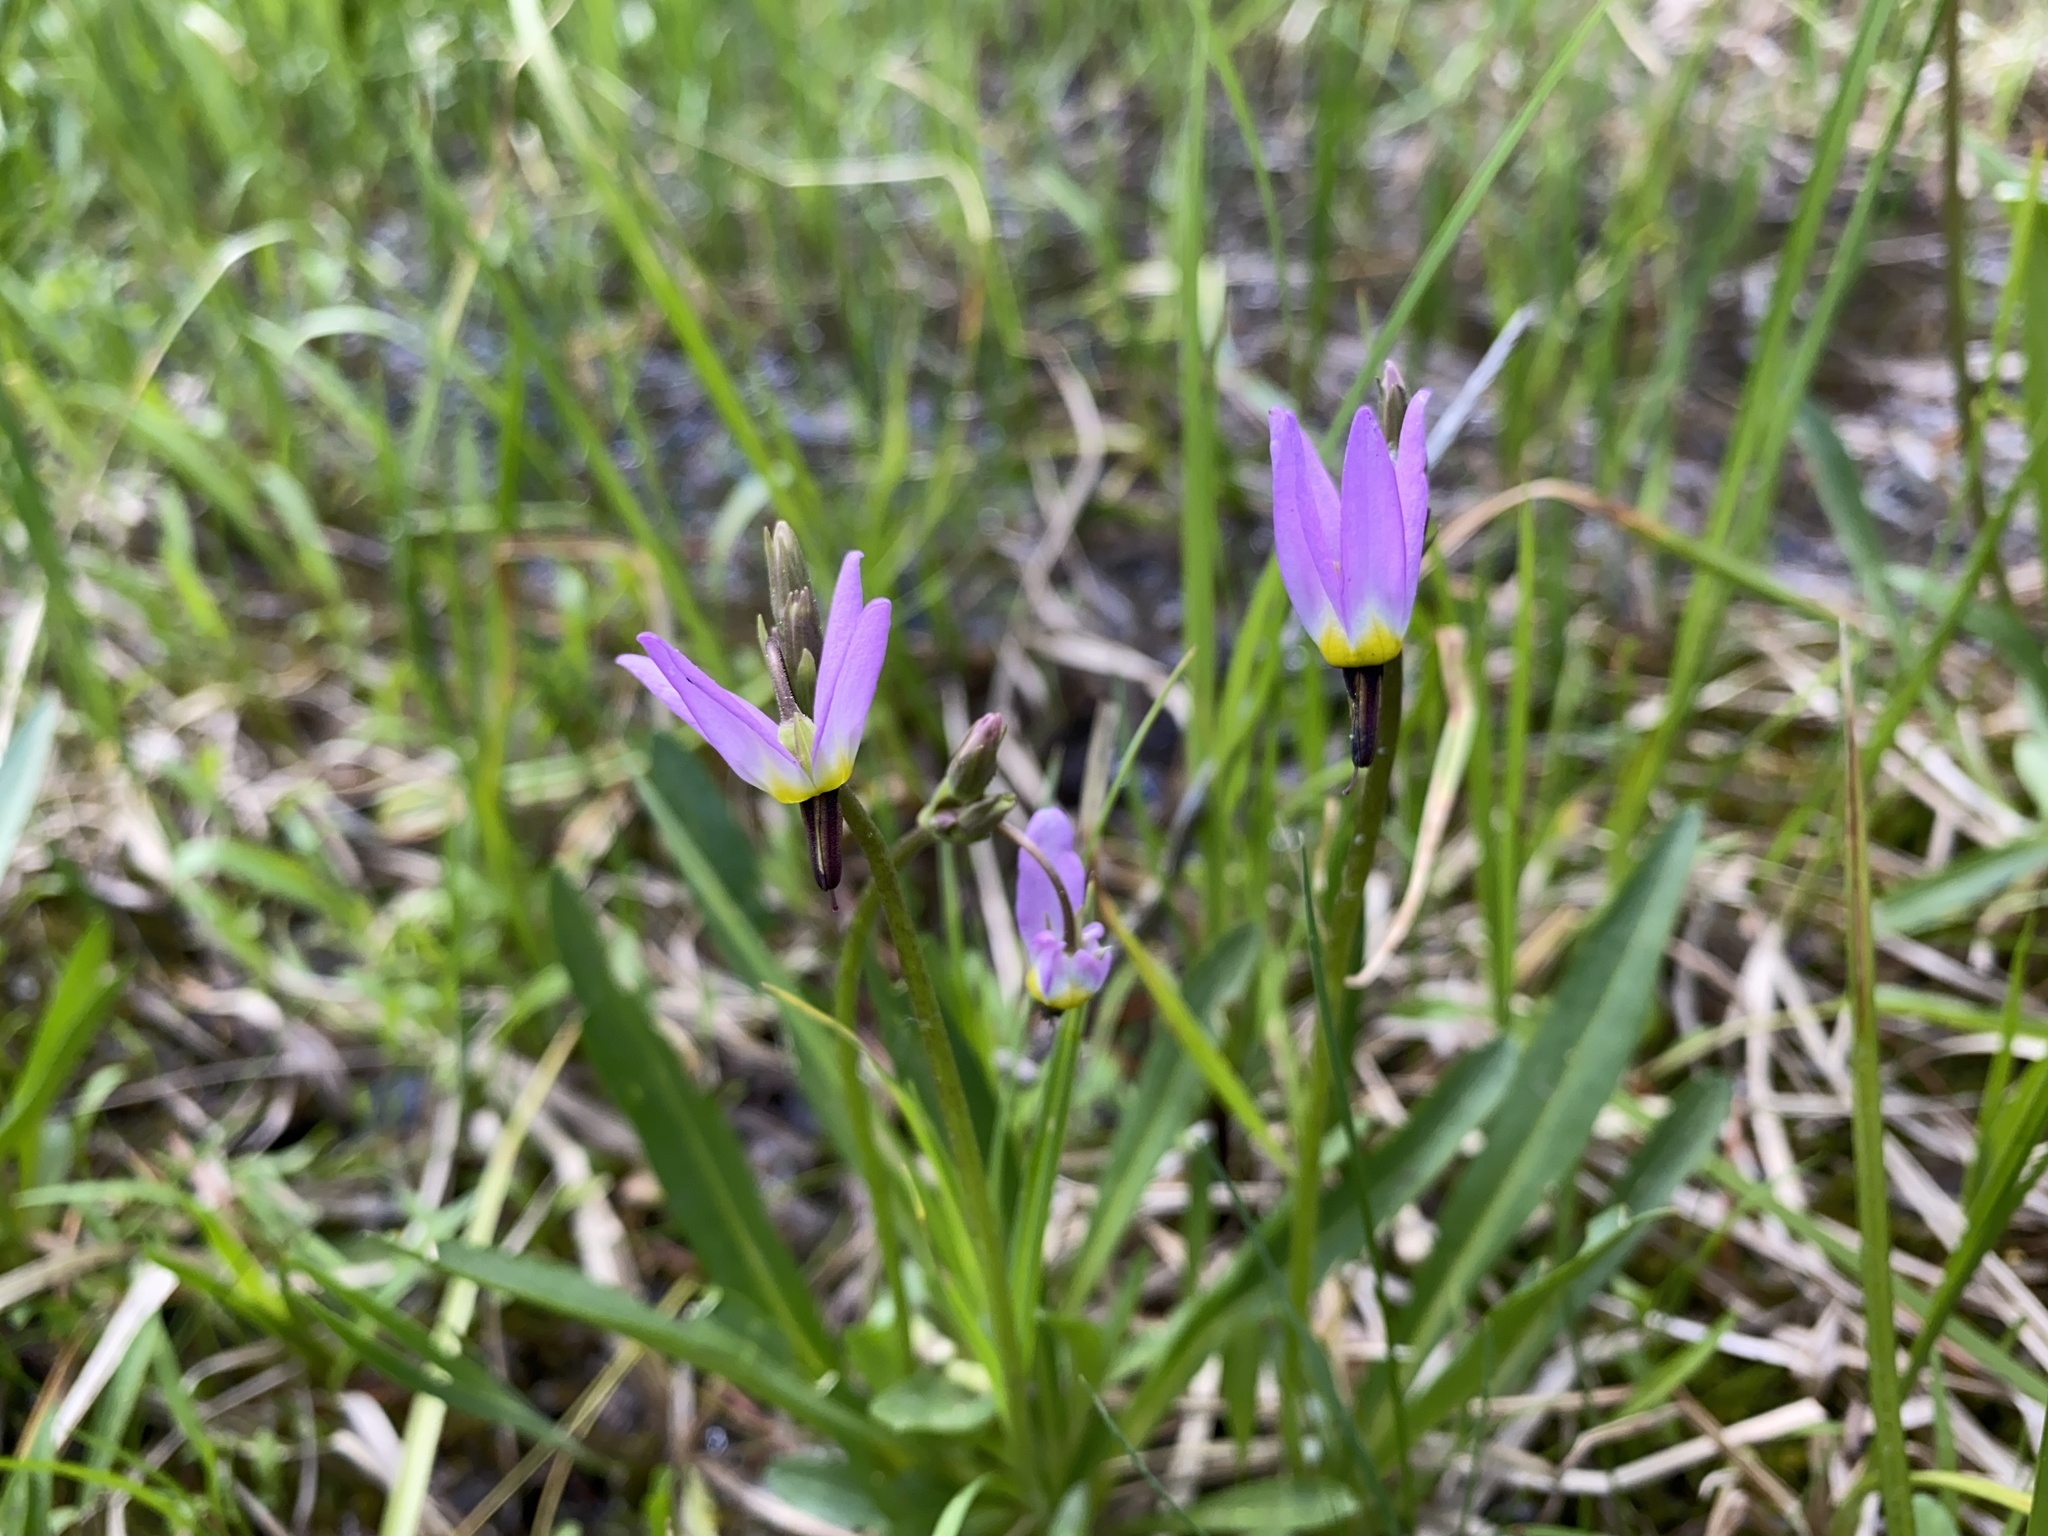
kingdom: Plantae
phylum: Tracheophyta
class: Magnoliopsida
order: Ericales
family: Primulaceae
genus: Dodecatheon
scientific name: Dodecatheon alpinum
